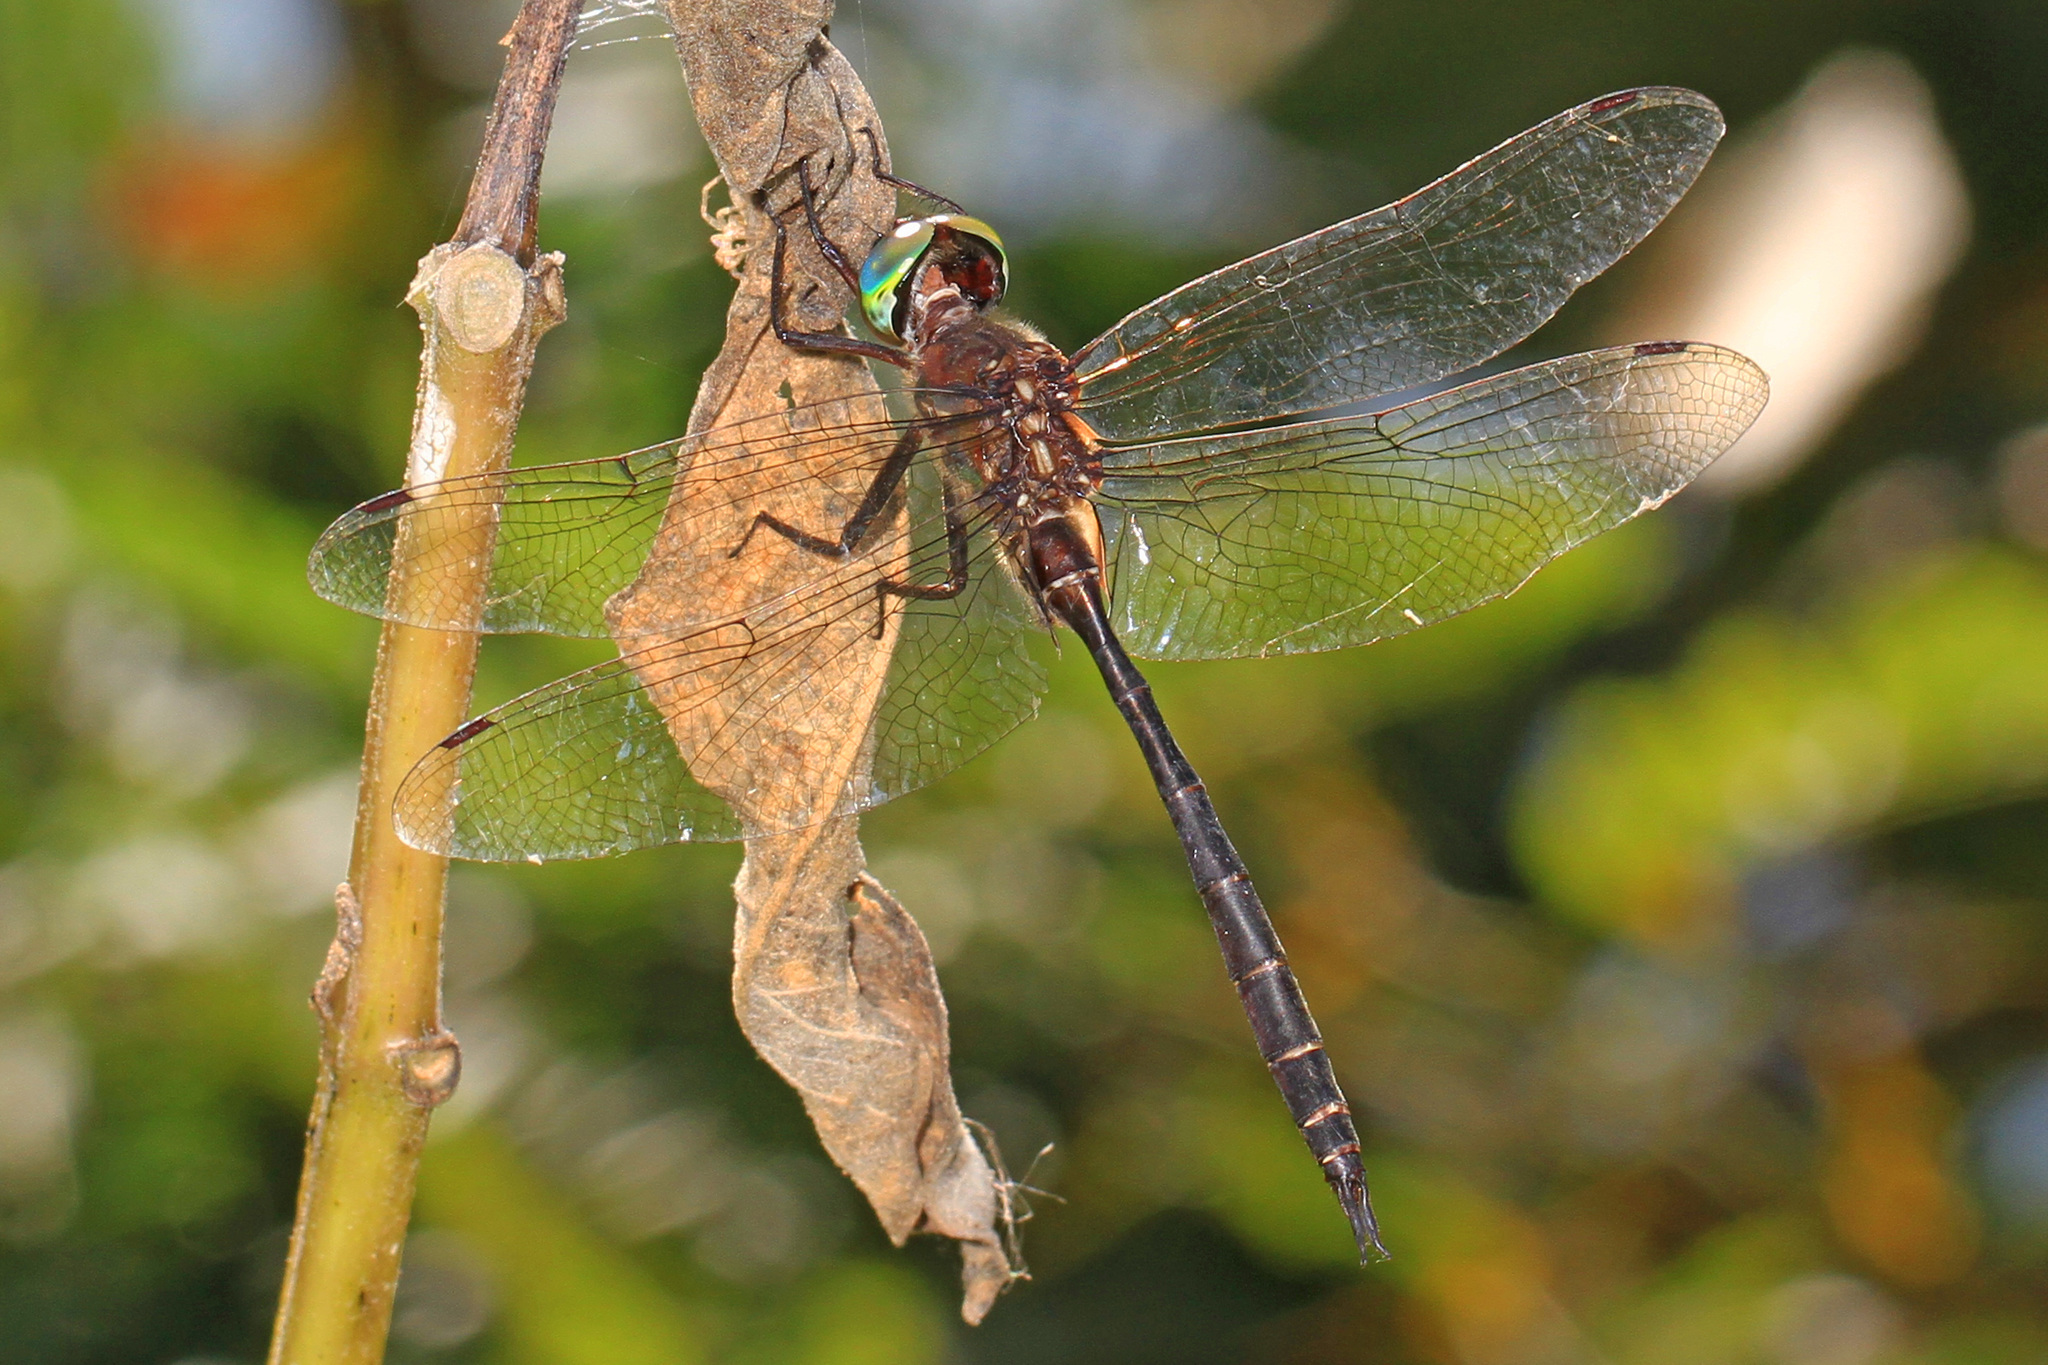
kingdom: Animalia
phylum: Arthropoda
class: Insecta
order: Odonata
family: Corduliidae
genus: Somatochlora
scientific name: Somatochlora filosa
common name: Fine-lined emerald
